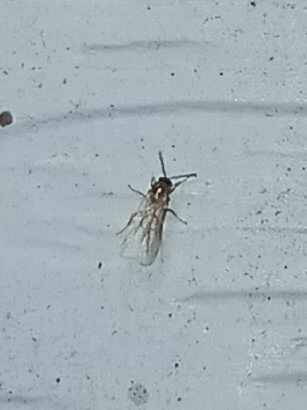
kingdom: Animalia
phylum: Arthropoda
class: Insecta
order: Hymenoptera
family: Formicidae
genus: Brachymyrmex
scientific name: Brachymyrmex patagonicus
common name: Dark rover ant
